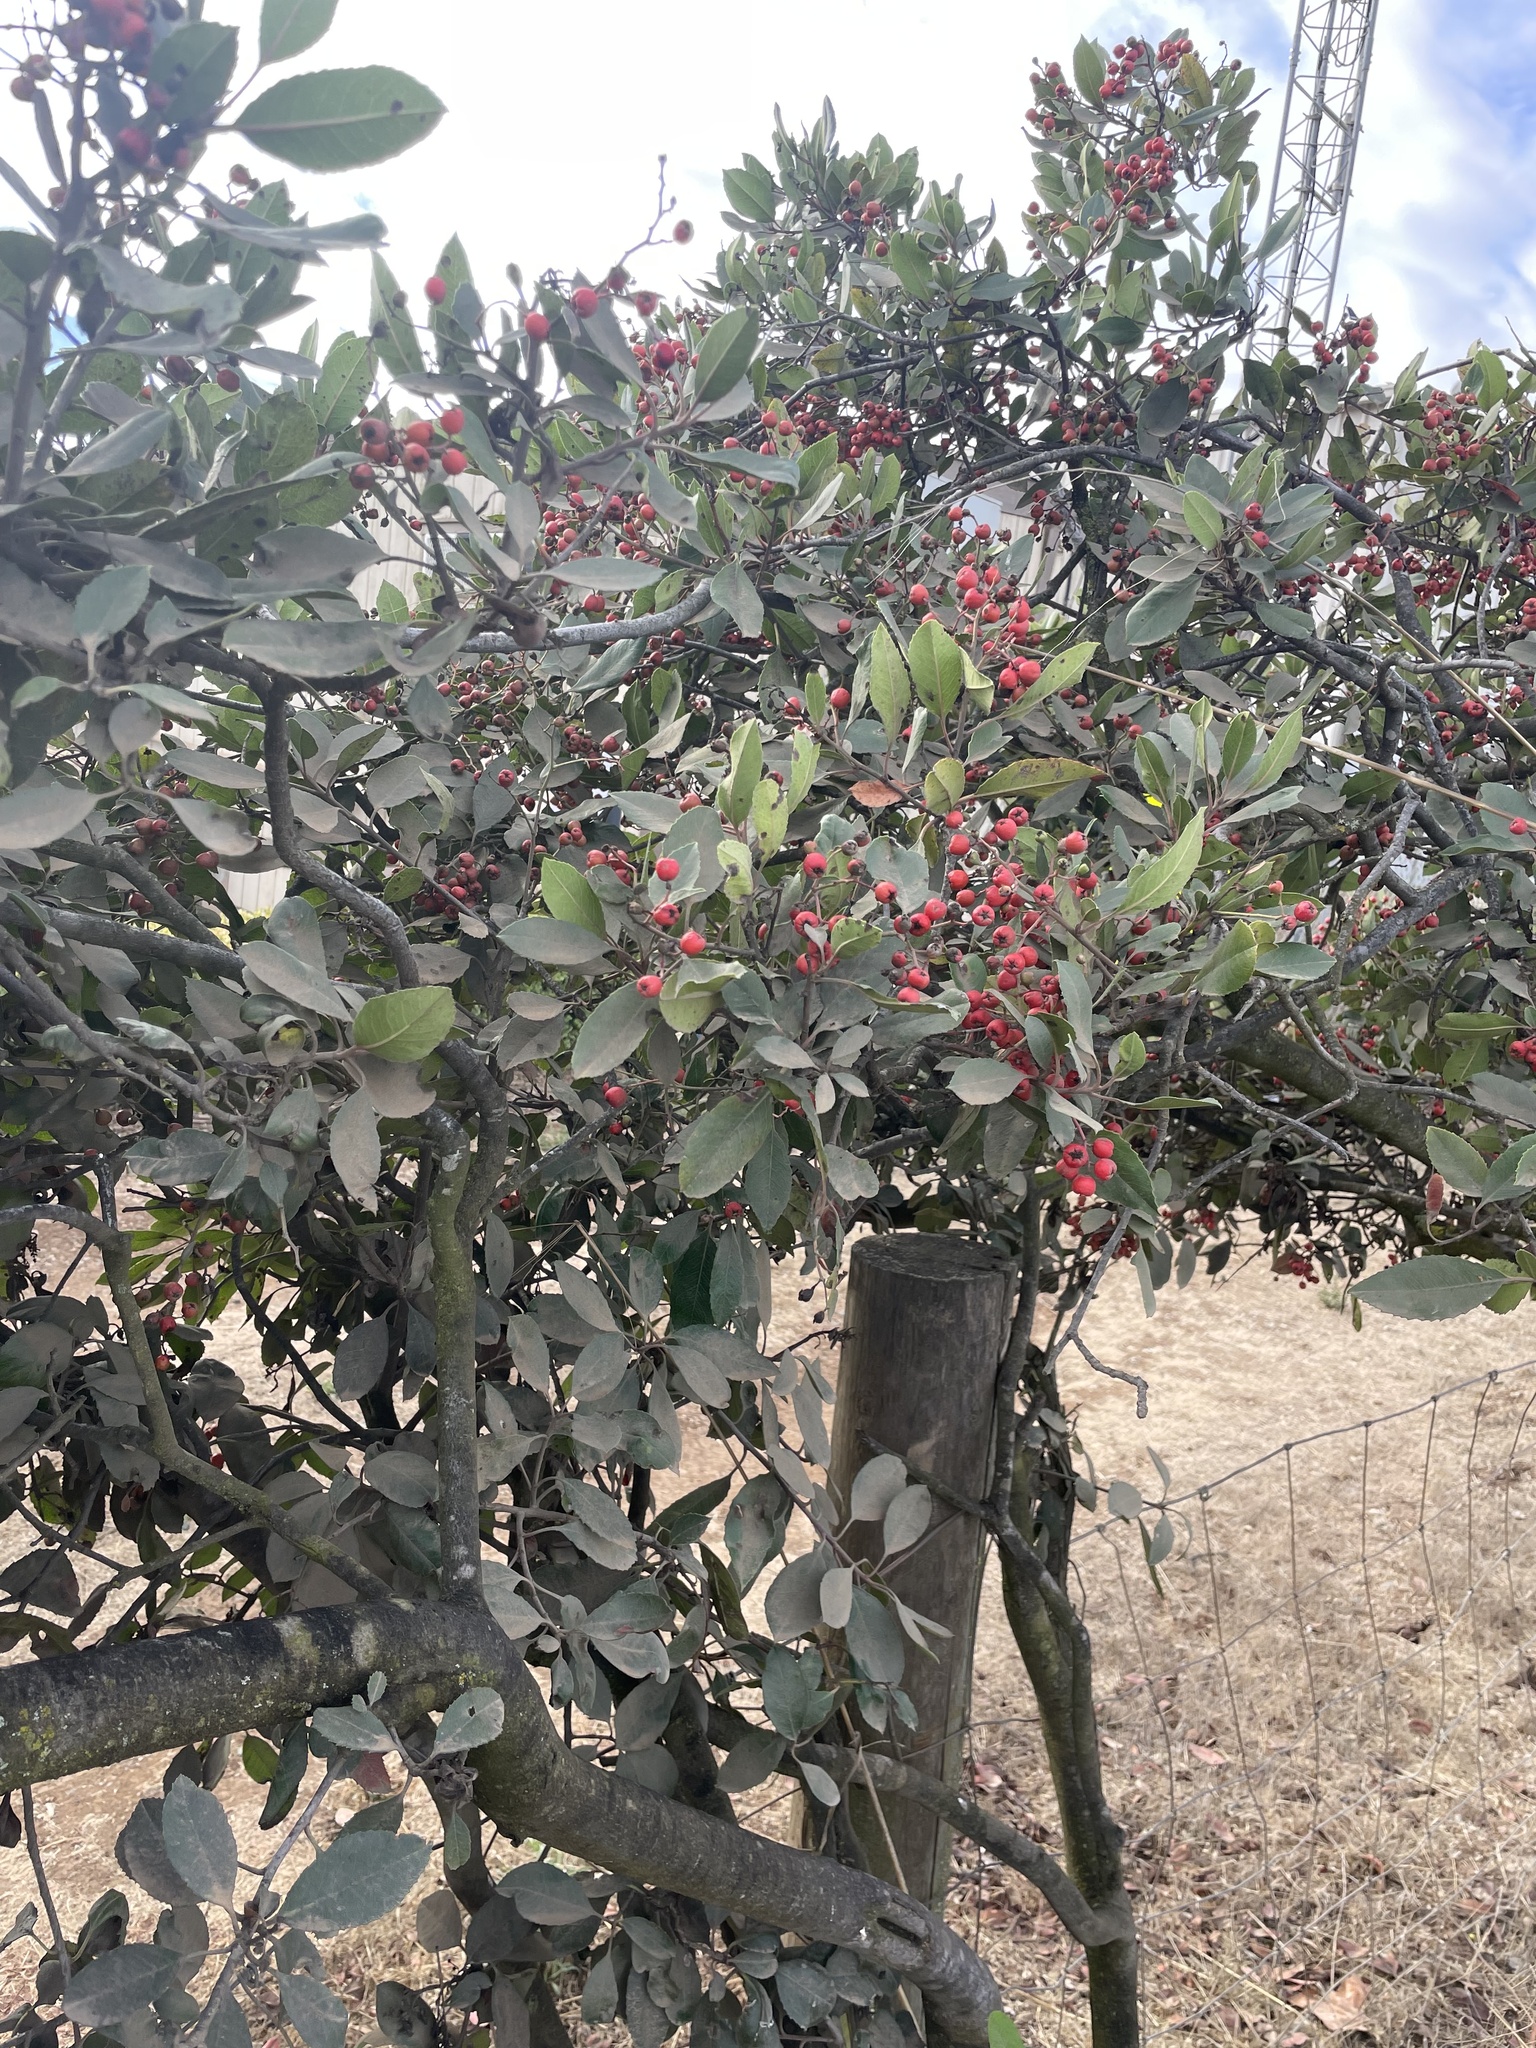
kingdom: Plantae
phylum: Tracheophyta
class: Magnoliopsida
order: Rosales
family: Rosaceae
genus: Heteromeles
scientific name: Heteromeles arbutifolia
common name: California-holly
